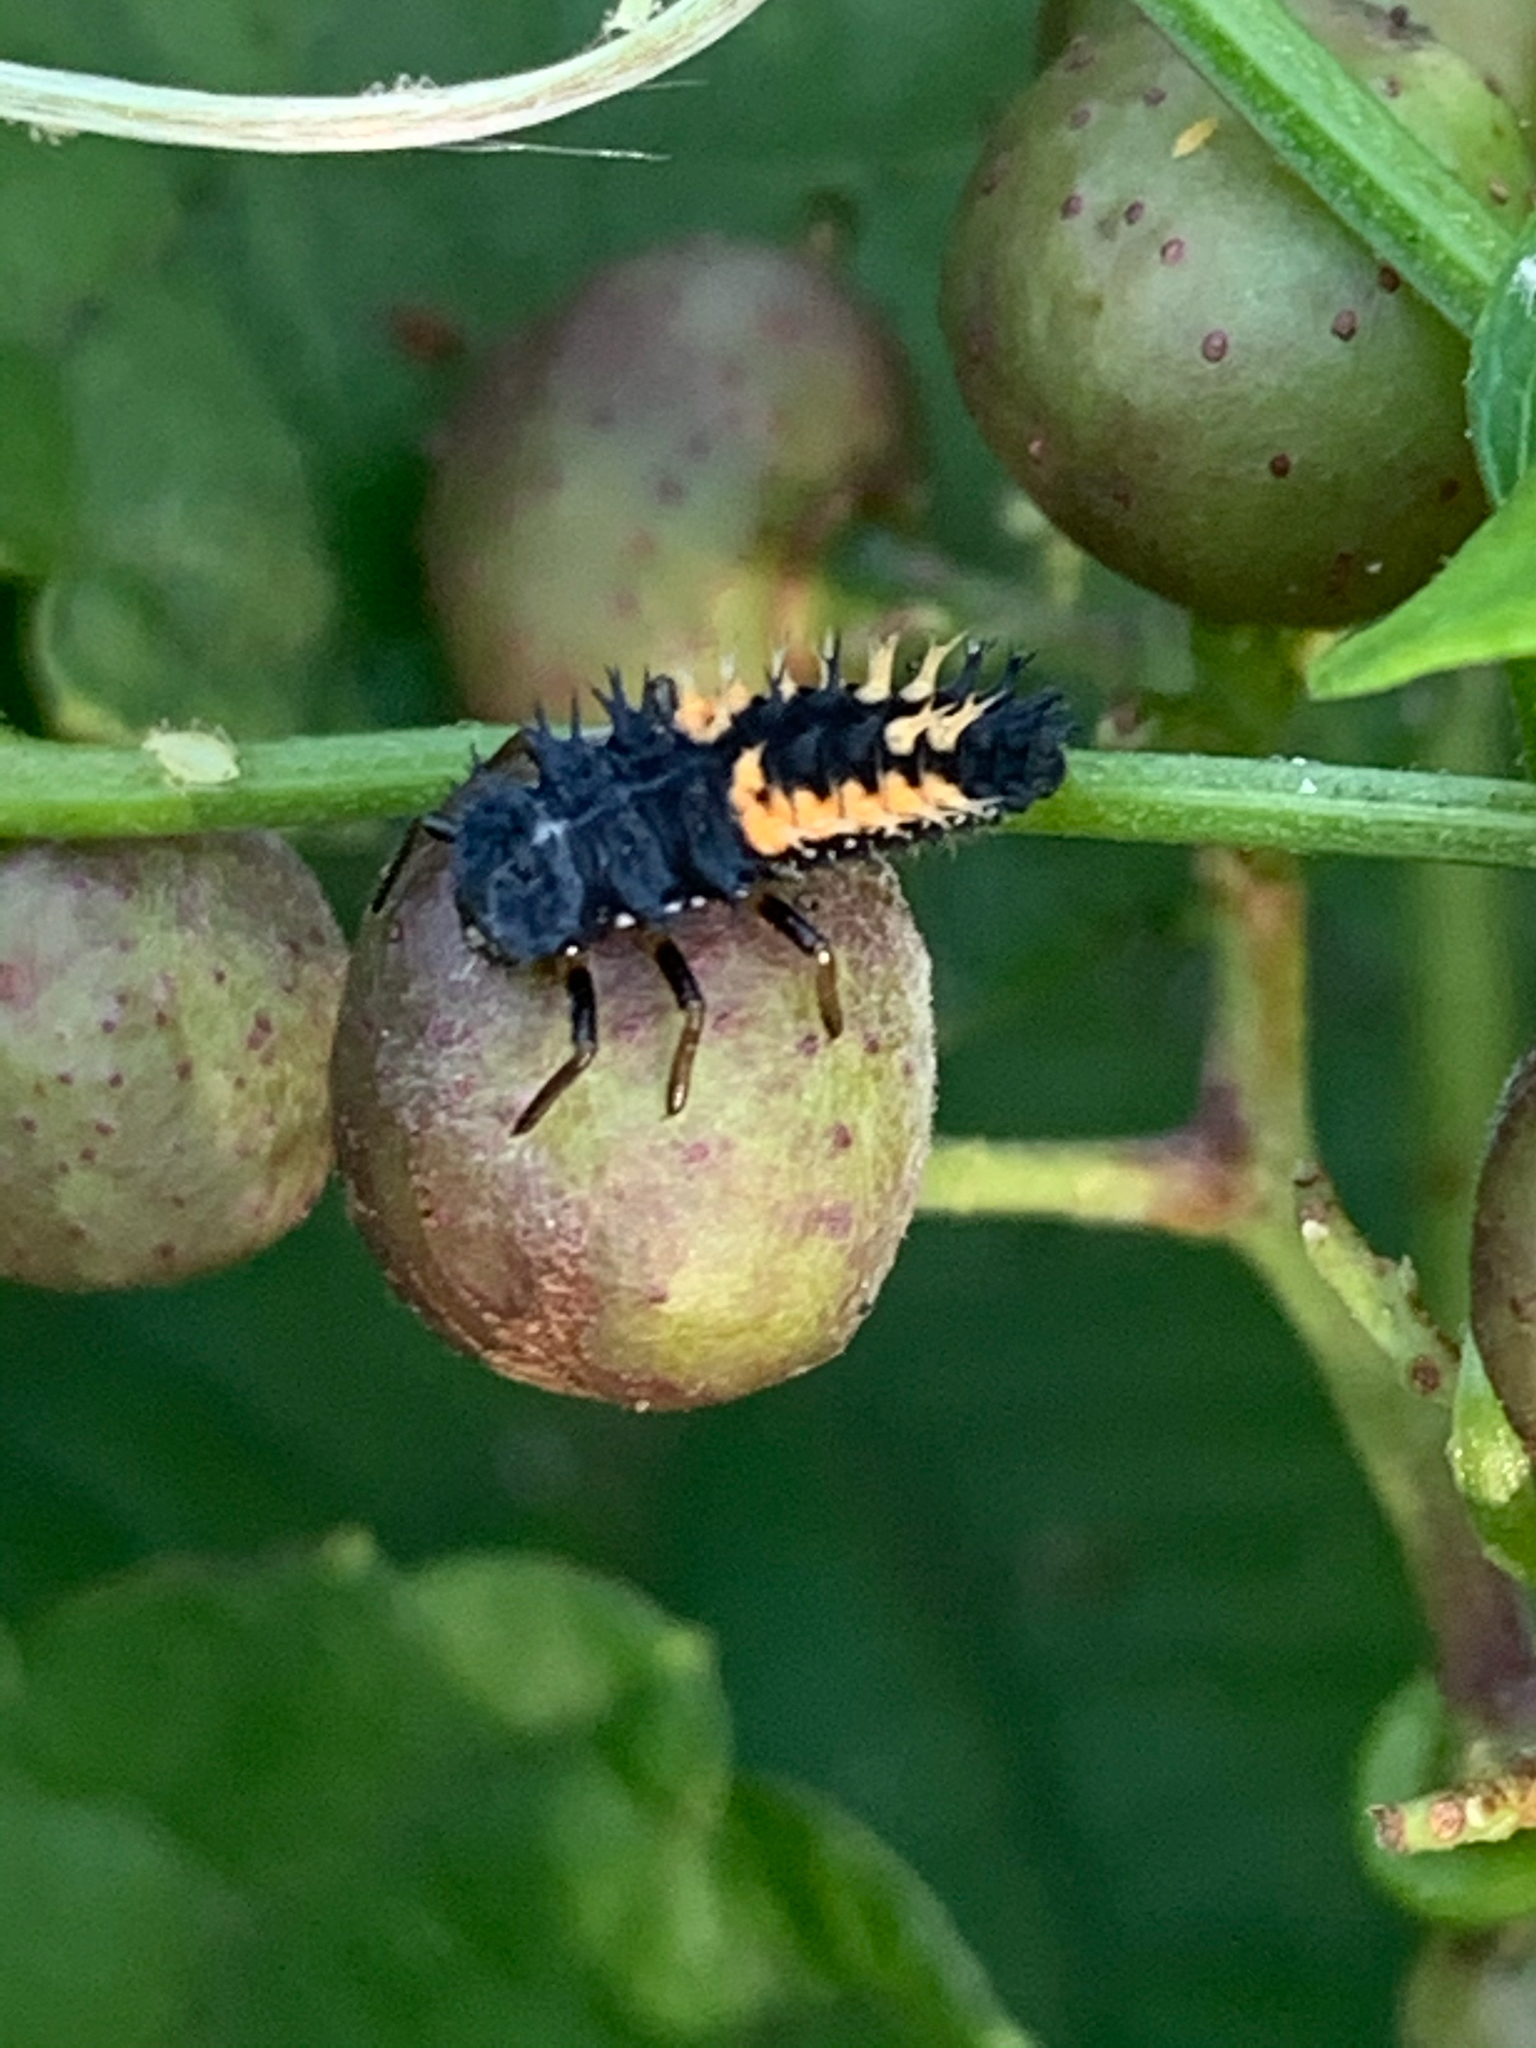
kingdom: Animalia
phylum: Arthropoda
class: Insecta
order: Coleoptera
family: Coccinellidae
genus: Harmonia
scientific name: Harmonia axyridis
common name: Harlequin ladybird
